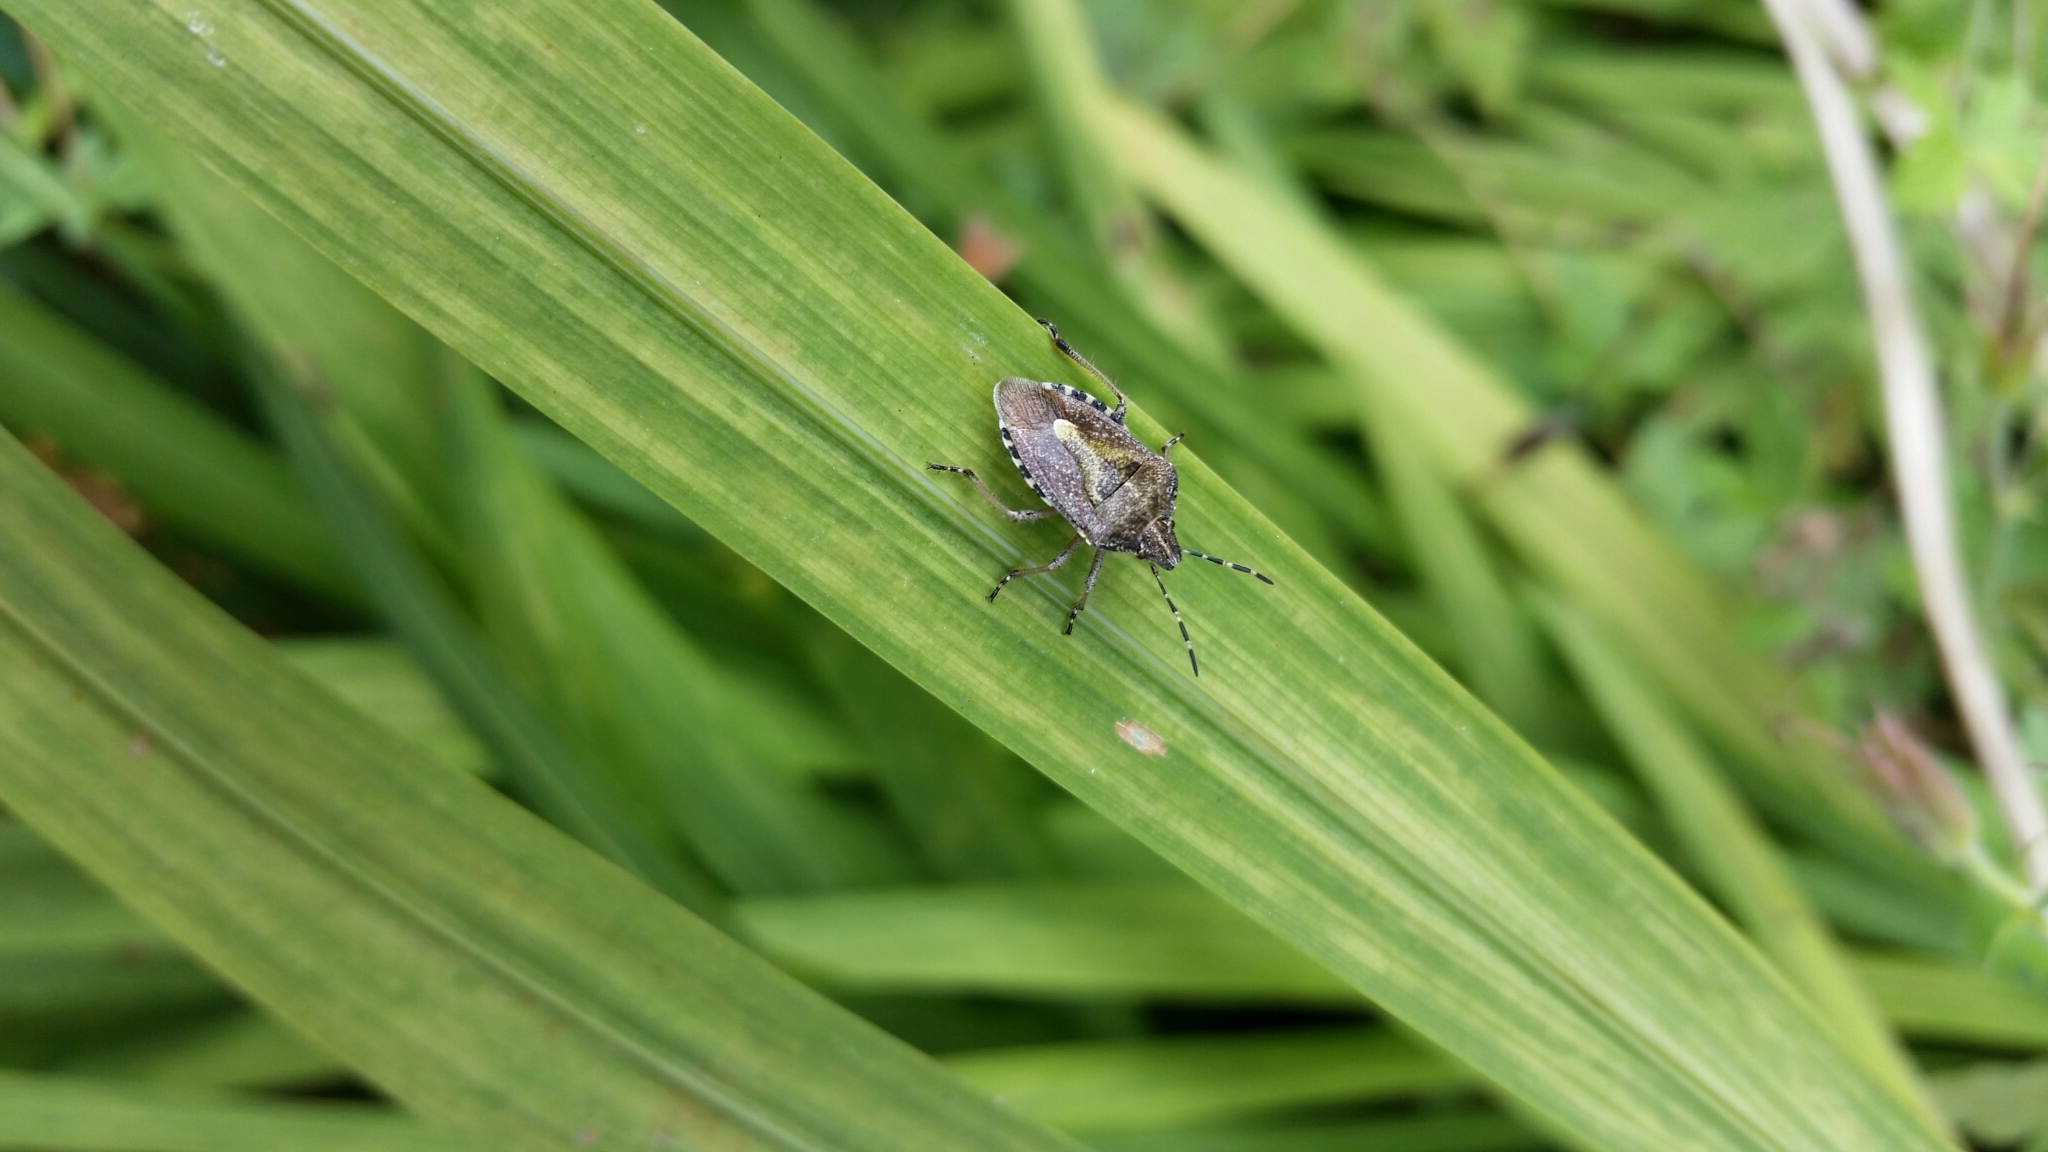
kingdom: Animalia
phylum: Arthropoda
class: Insecta
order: Hemiptera
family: Pentatomidae
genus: Dolycoris
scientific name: Dolycoris baccarum
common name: Sloe bug
